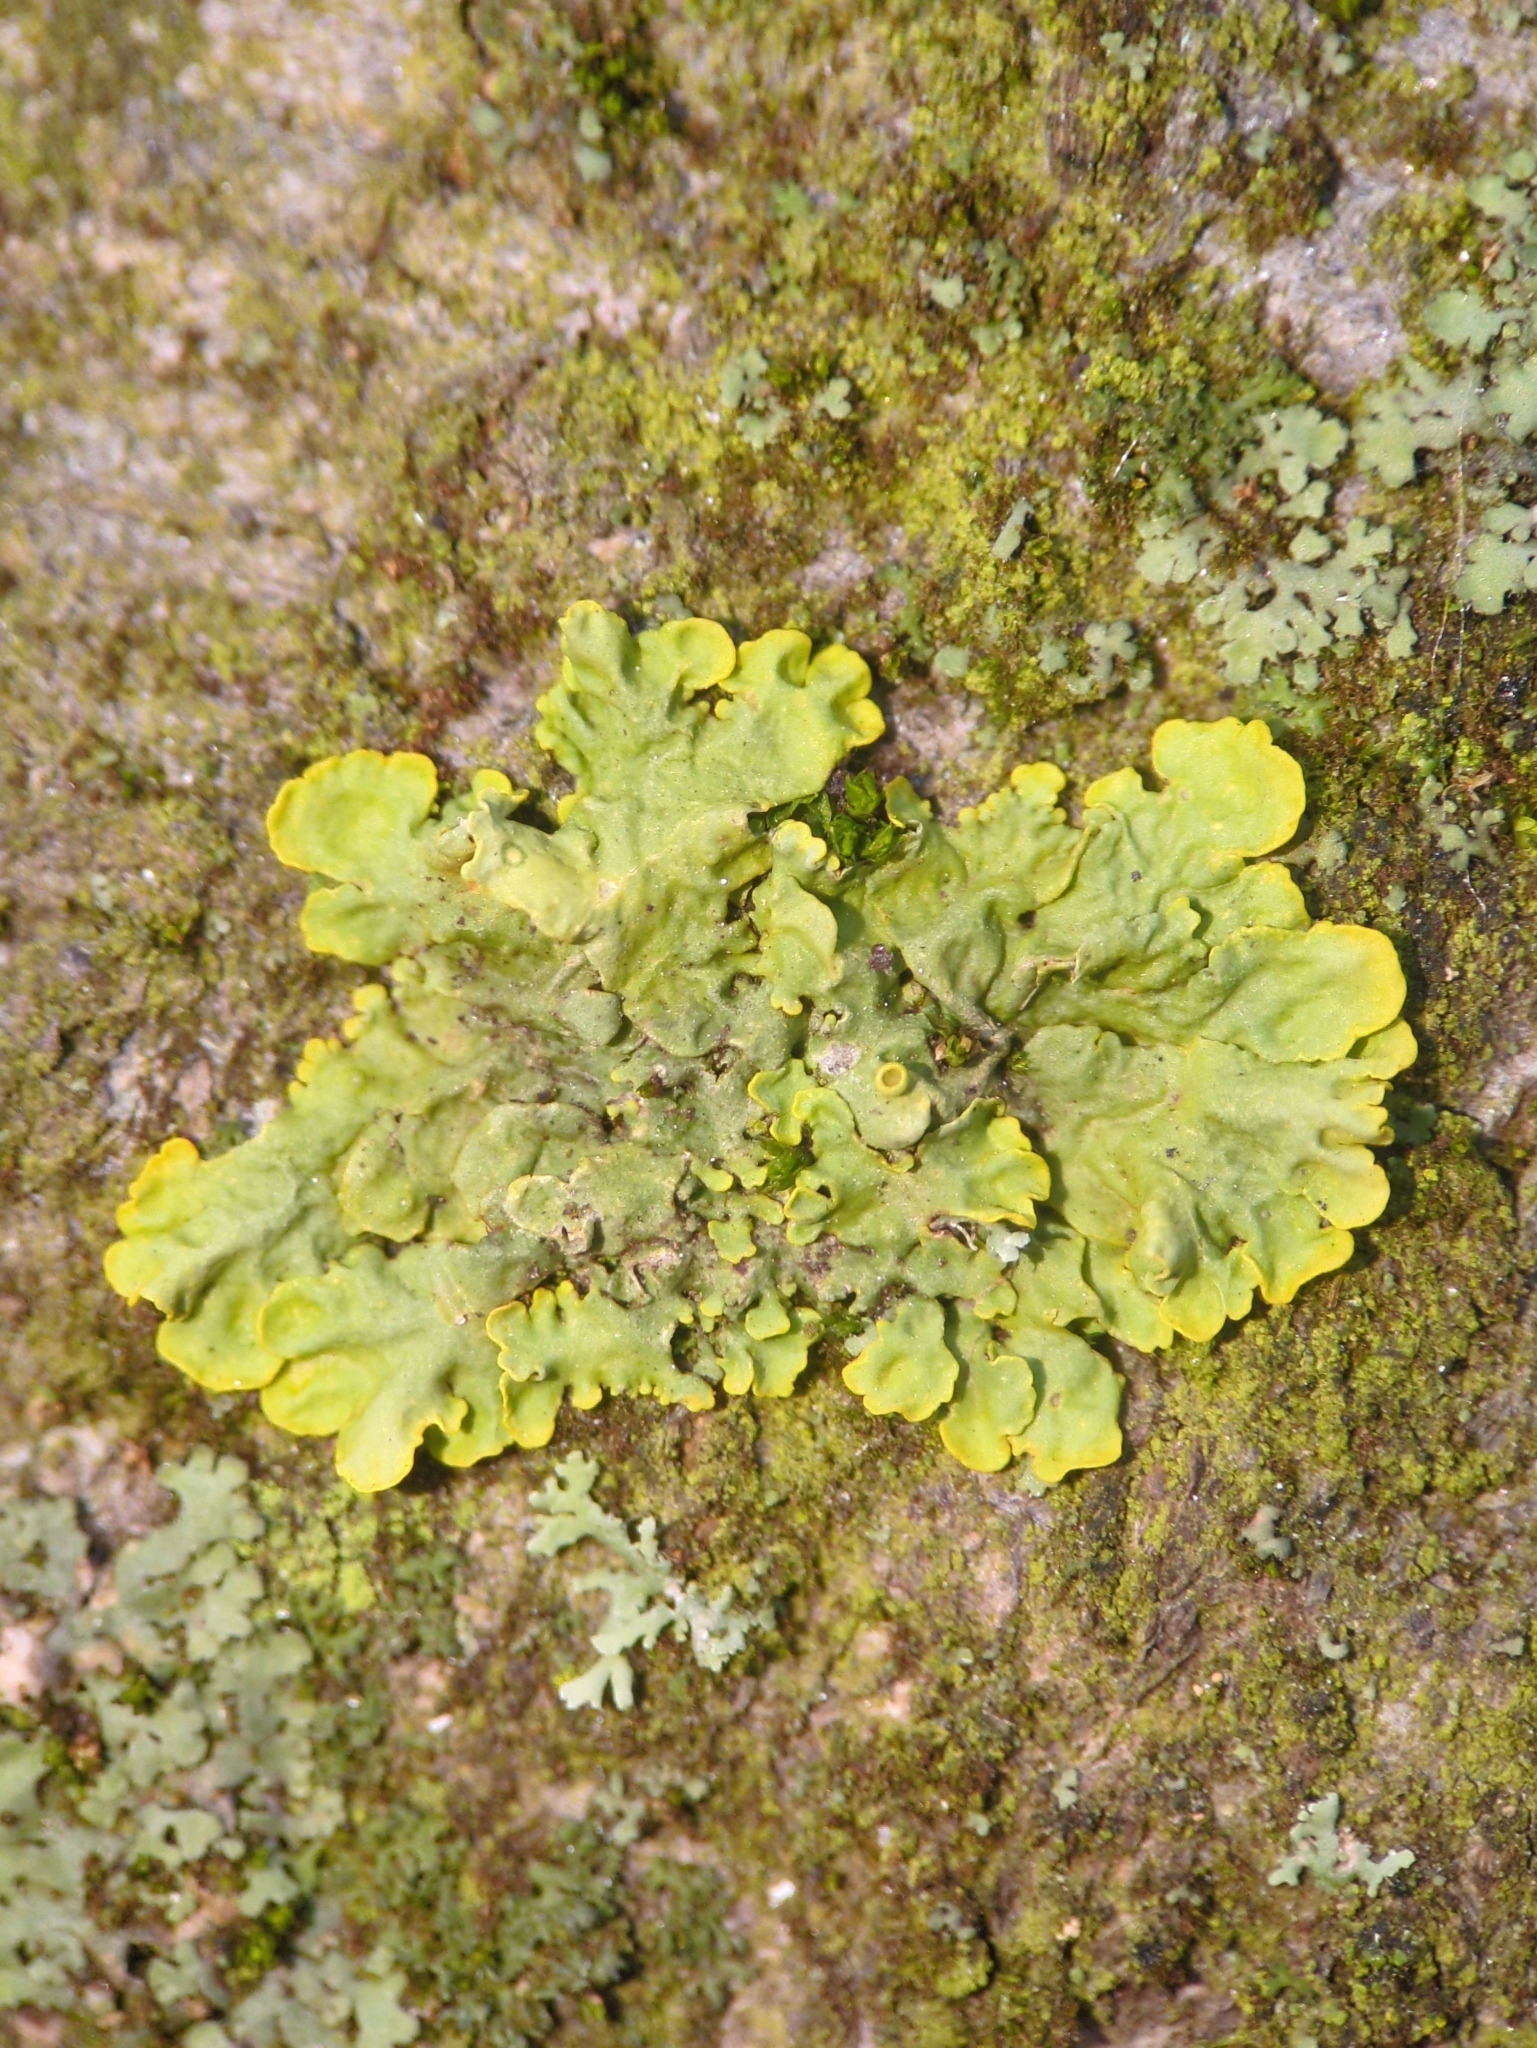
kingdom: Fungi
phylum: Ascomycota
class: Lecanoromycetes
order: Teloschistales
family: Teloschistaceae
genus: Xanthoria
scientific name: Xanthoria parietina
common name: Common orange lichen
